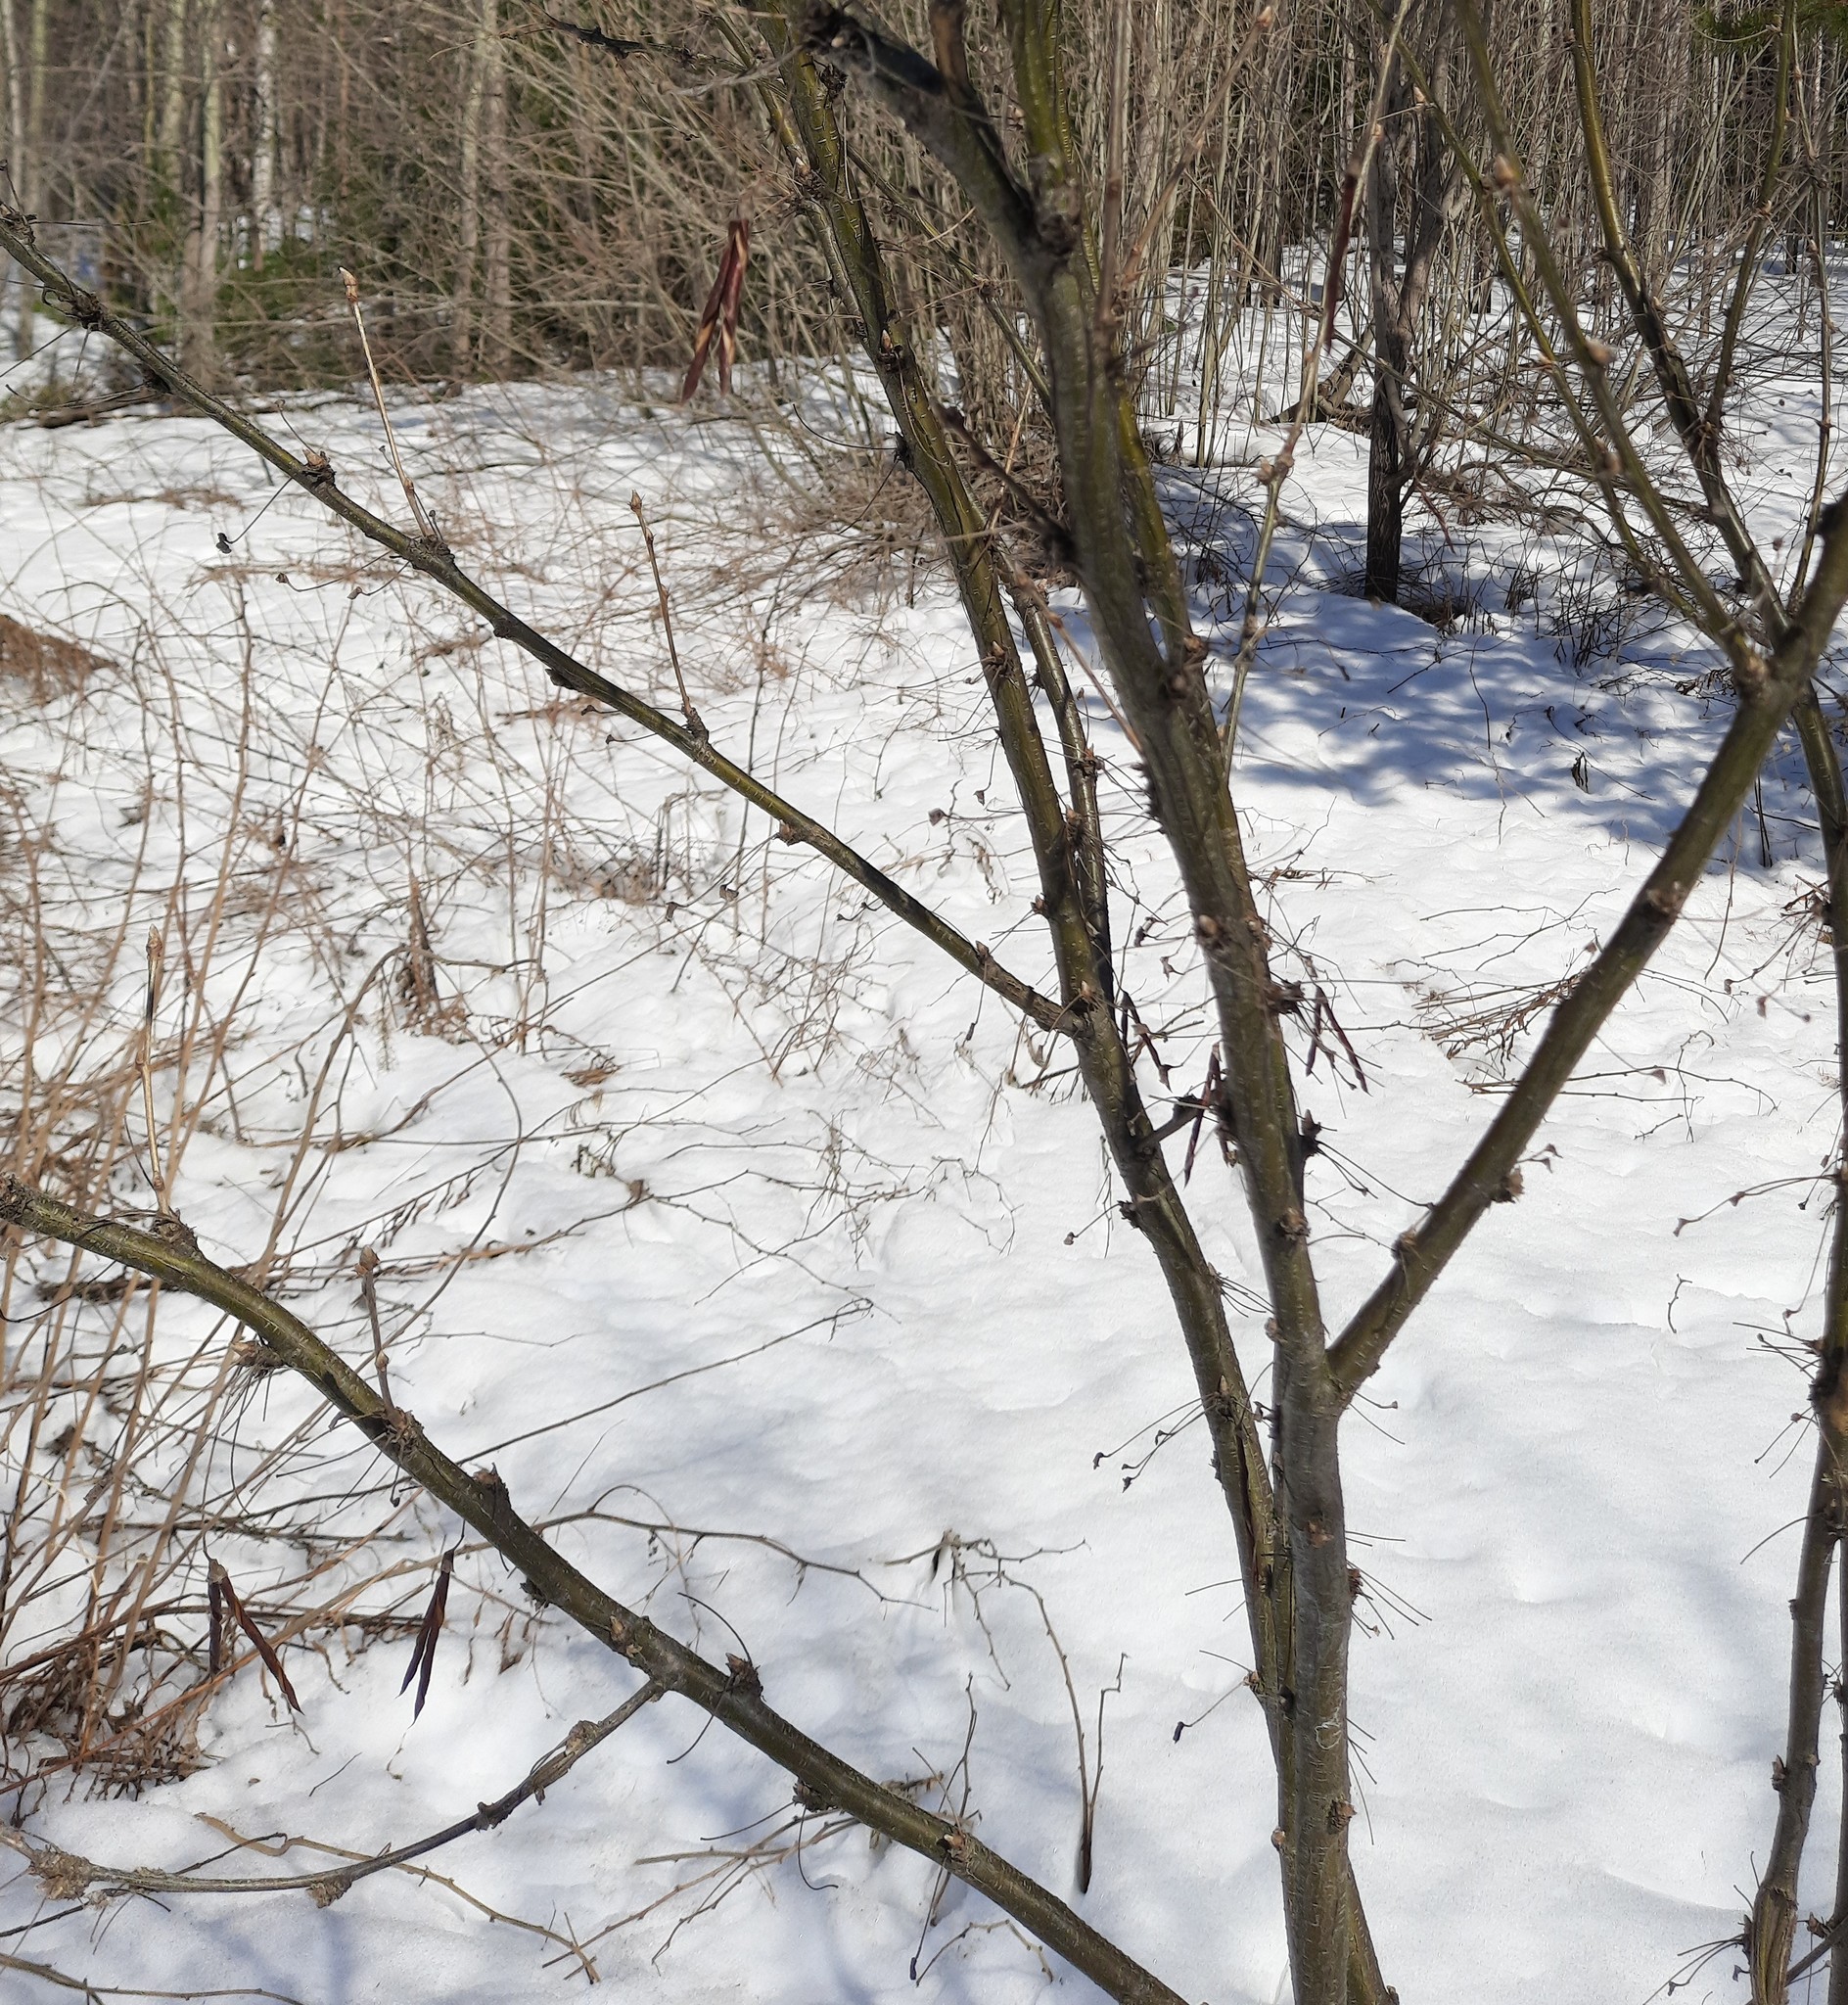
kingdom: Plantae
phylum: Tracheophyta
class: Magnoliopsida
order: Fabales
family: Fabaceae
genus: Caragana
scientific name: Caragana arborescens
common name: Siberian peashrub
